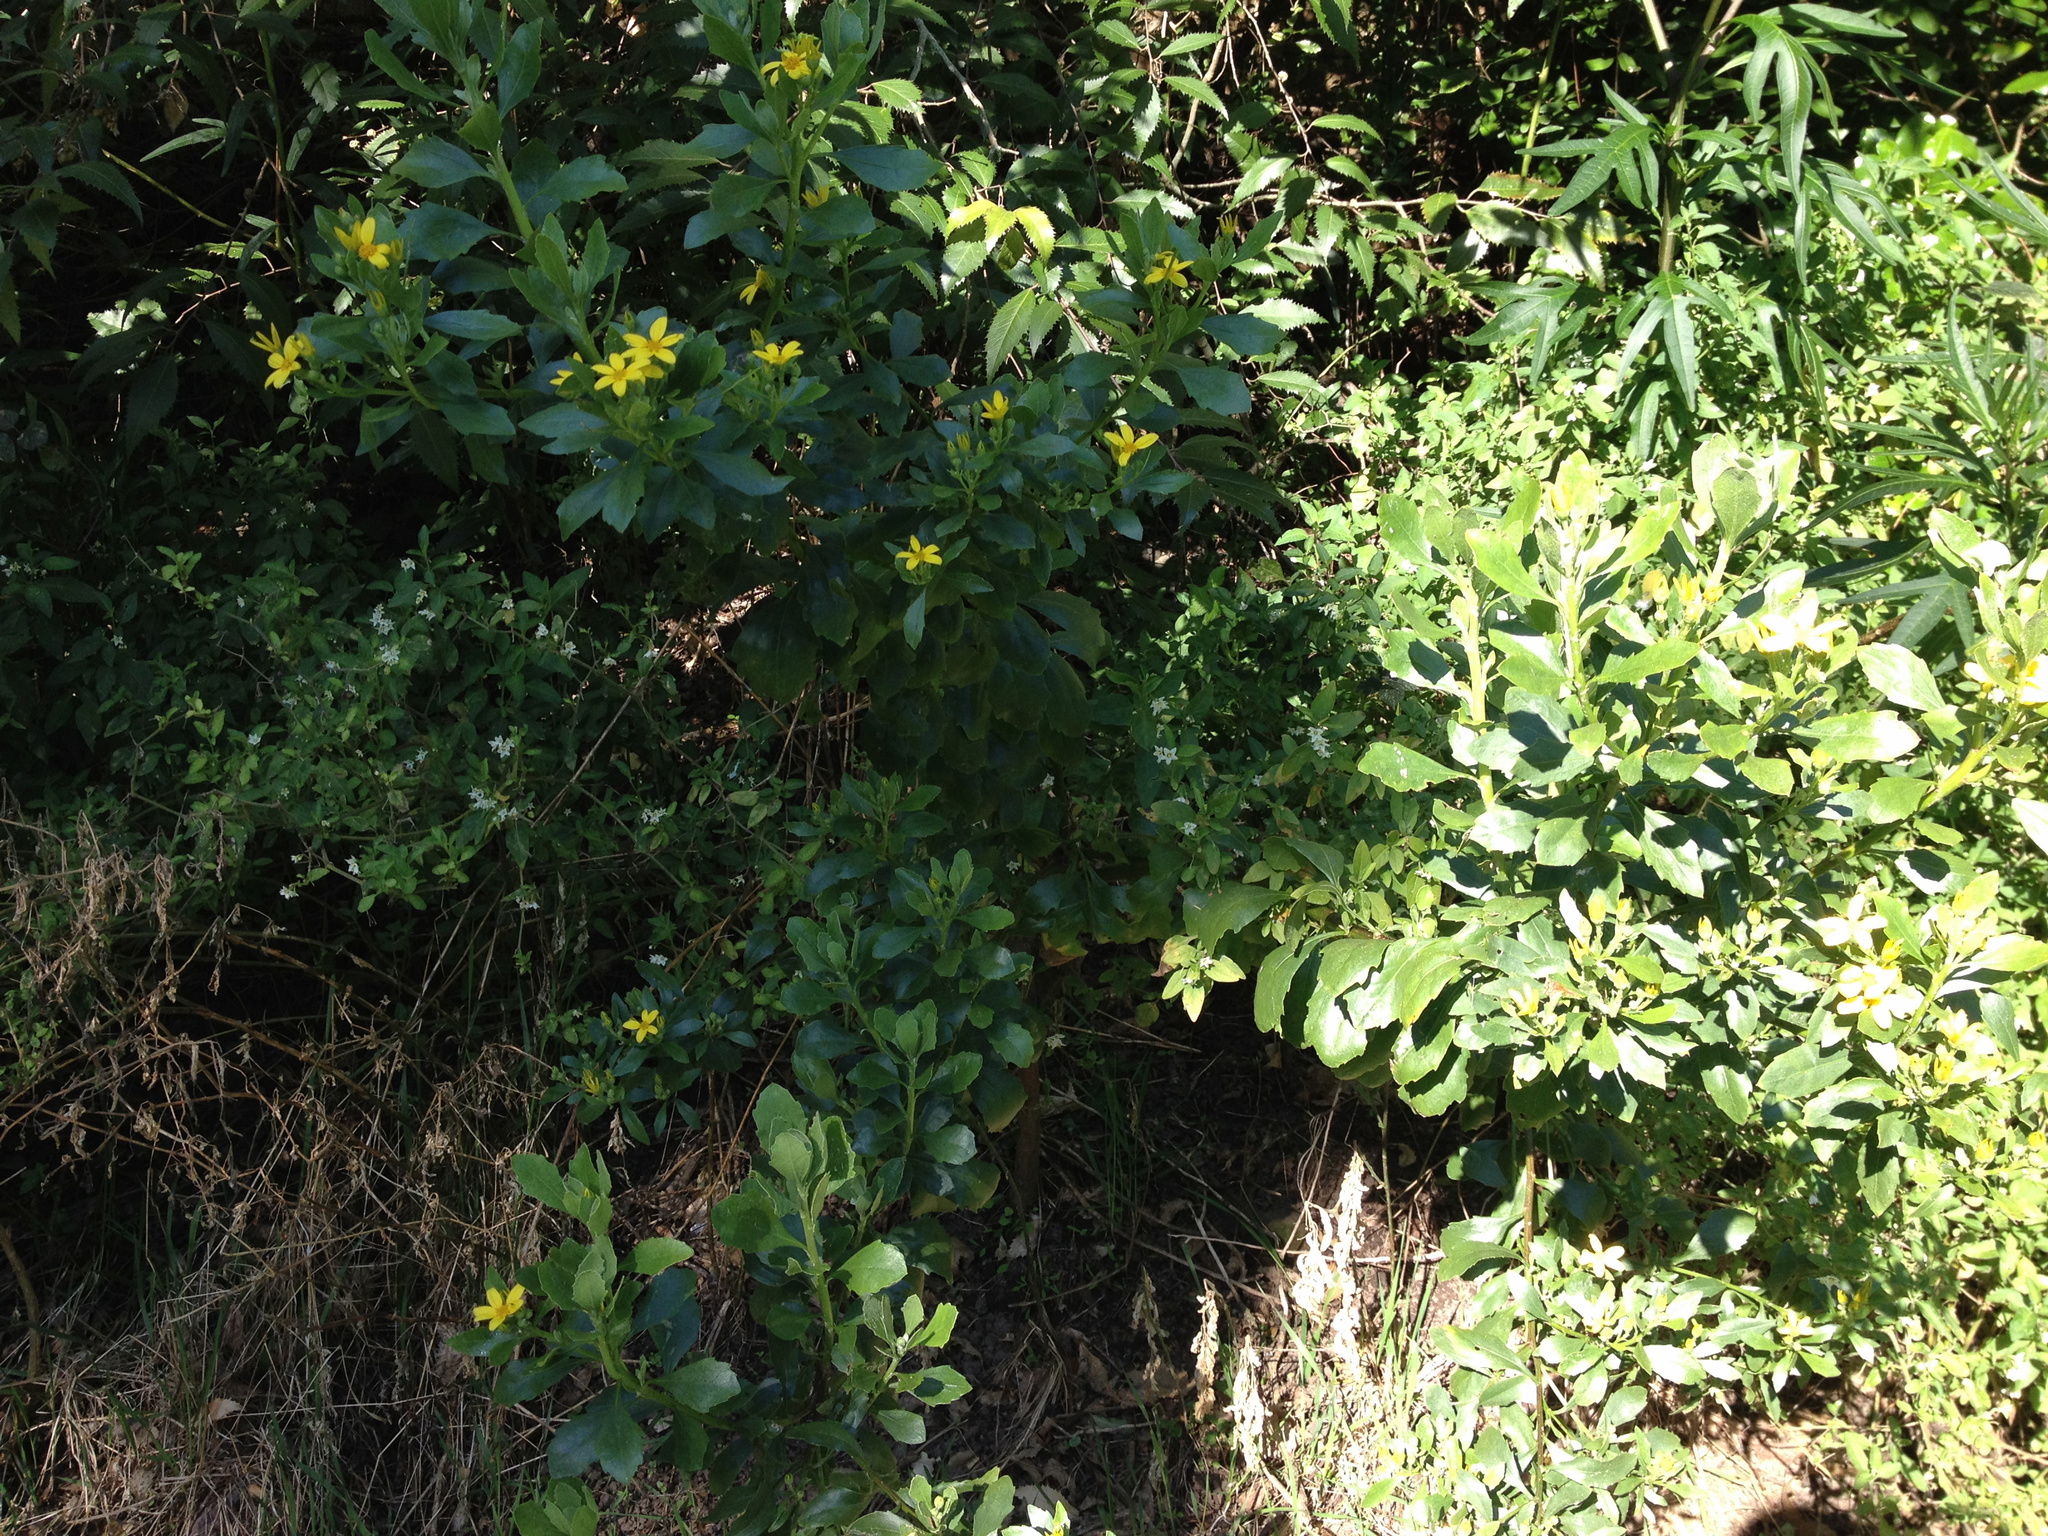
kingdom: Plantae
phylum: Tracheophyta
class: Magnoliopsida
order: Asterales
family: Asteraceae
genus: Osteospermum
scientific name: Osteospermum moniliferum
